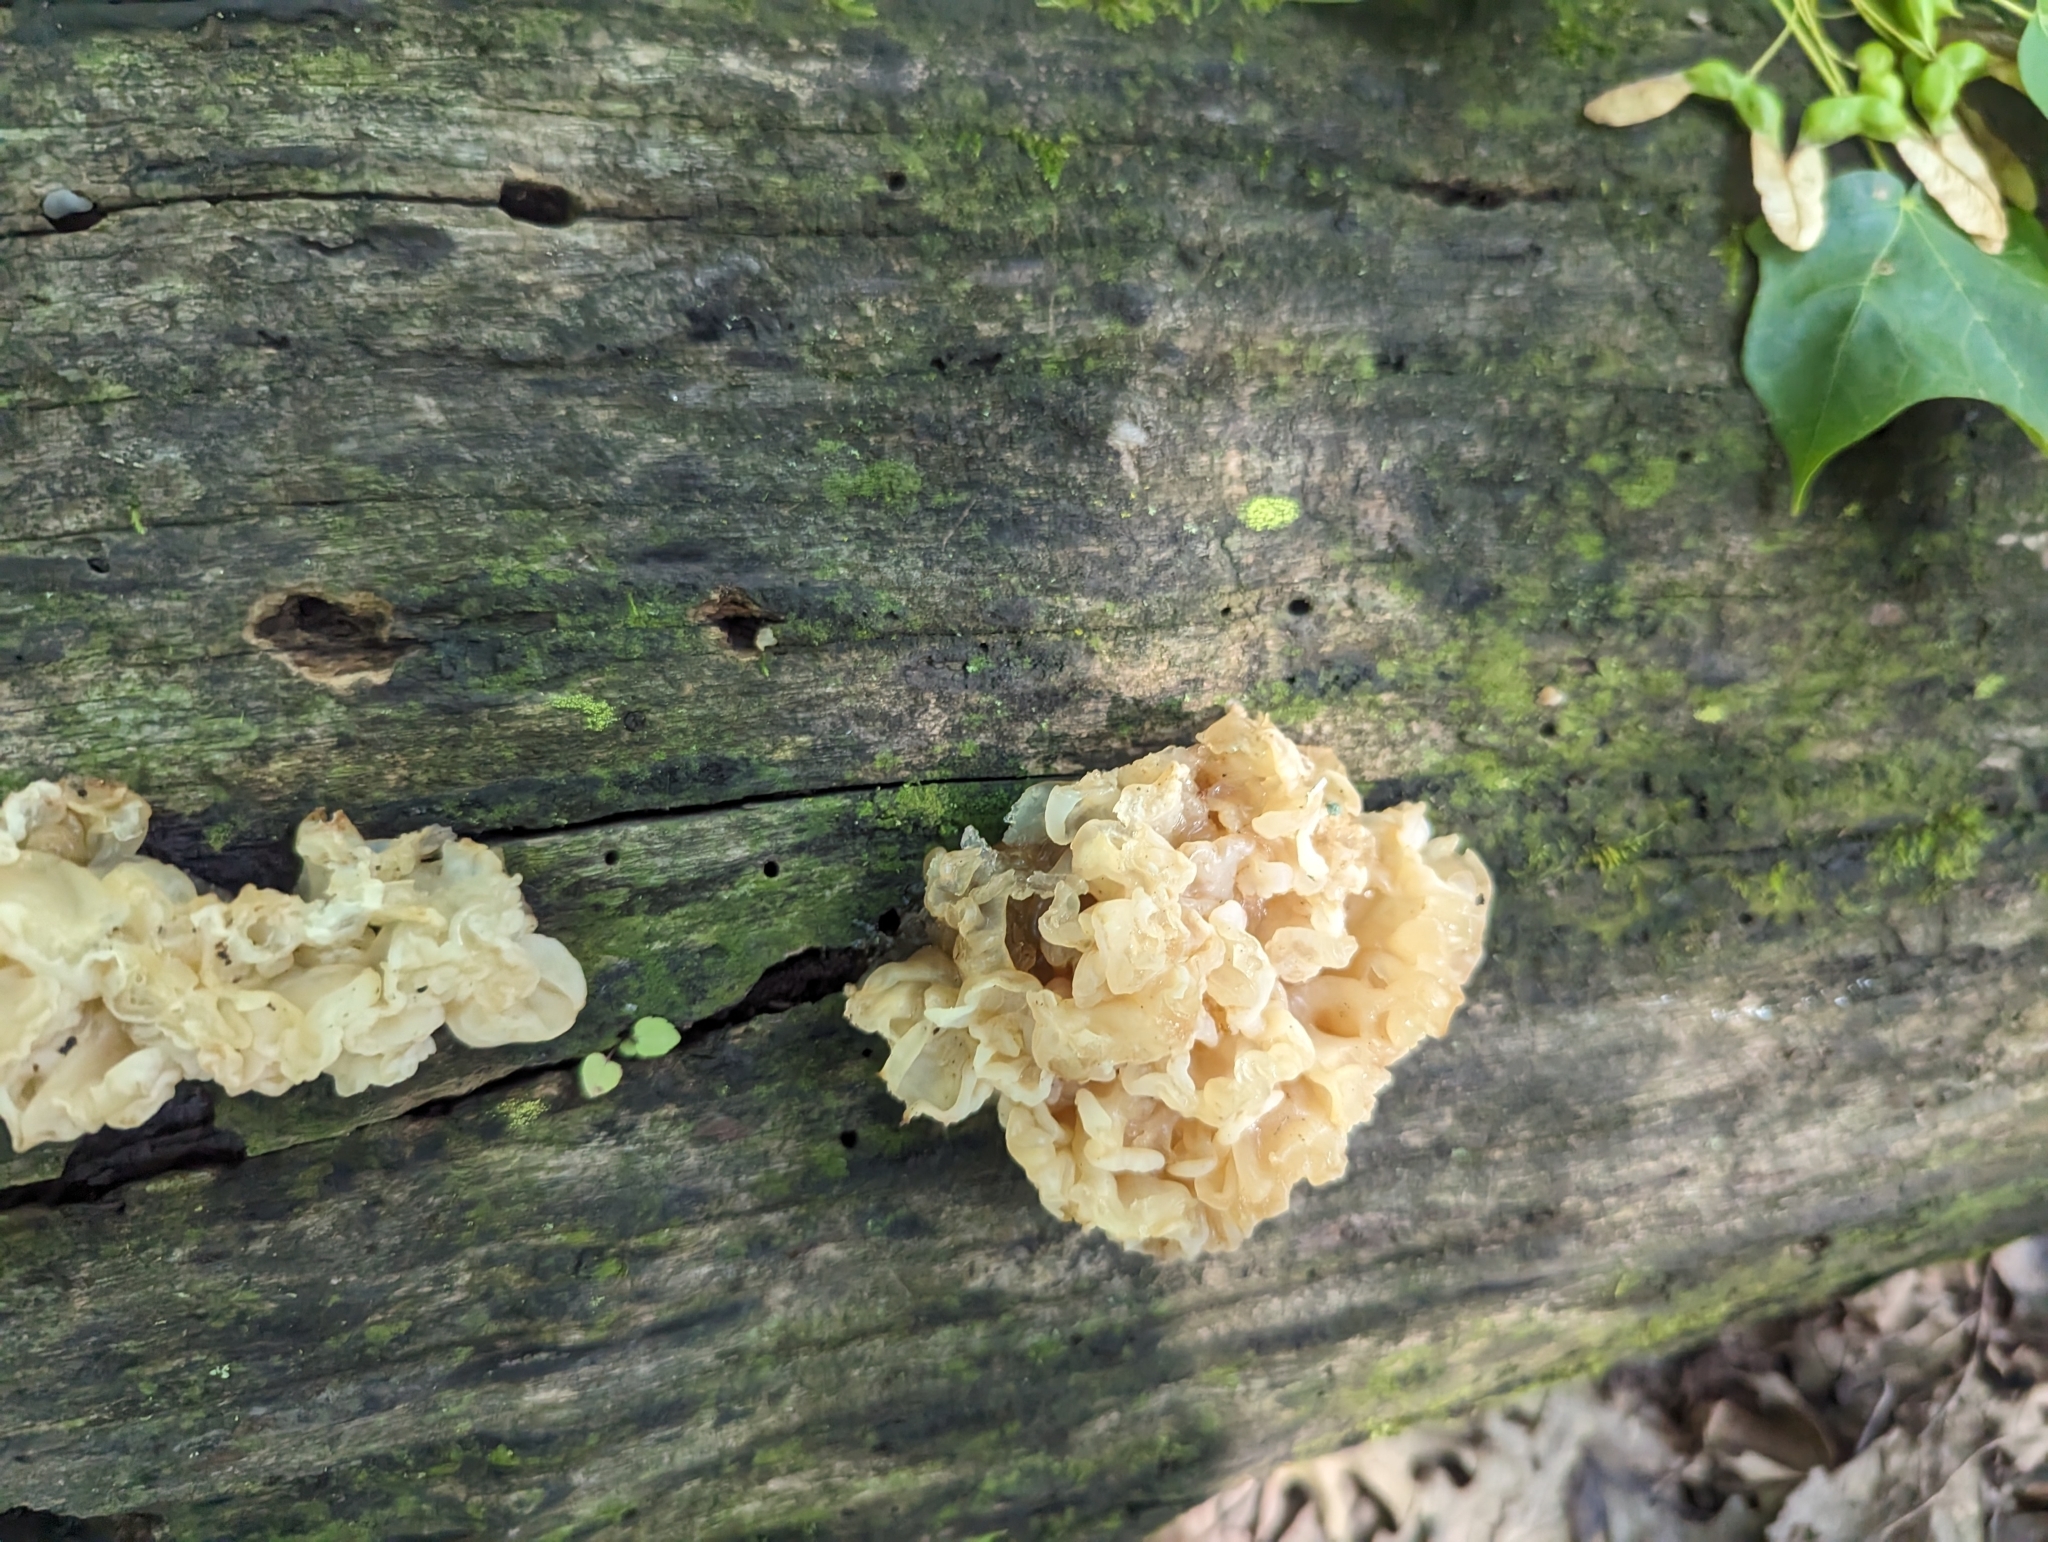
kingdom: Fungi
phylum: Basidiomycota
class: Agaricomycetes
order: Auriculariales
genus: Ductifera
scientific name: Ductifera pululahuana
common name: White jelly fungus
